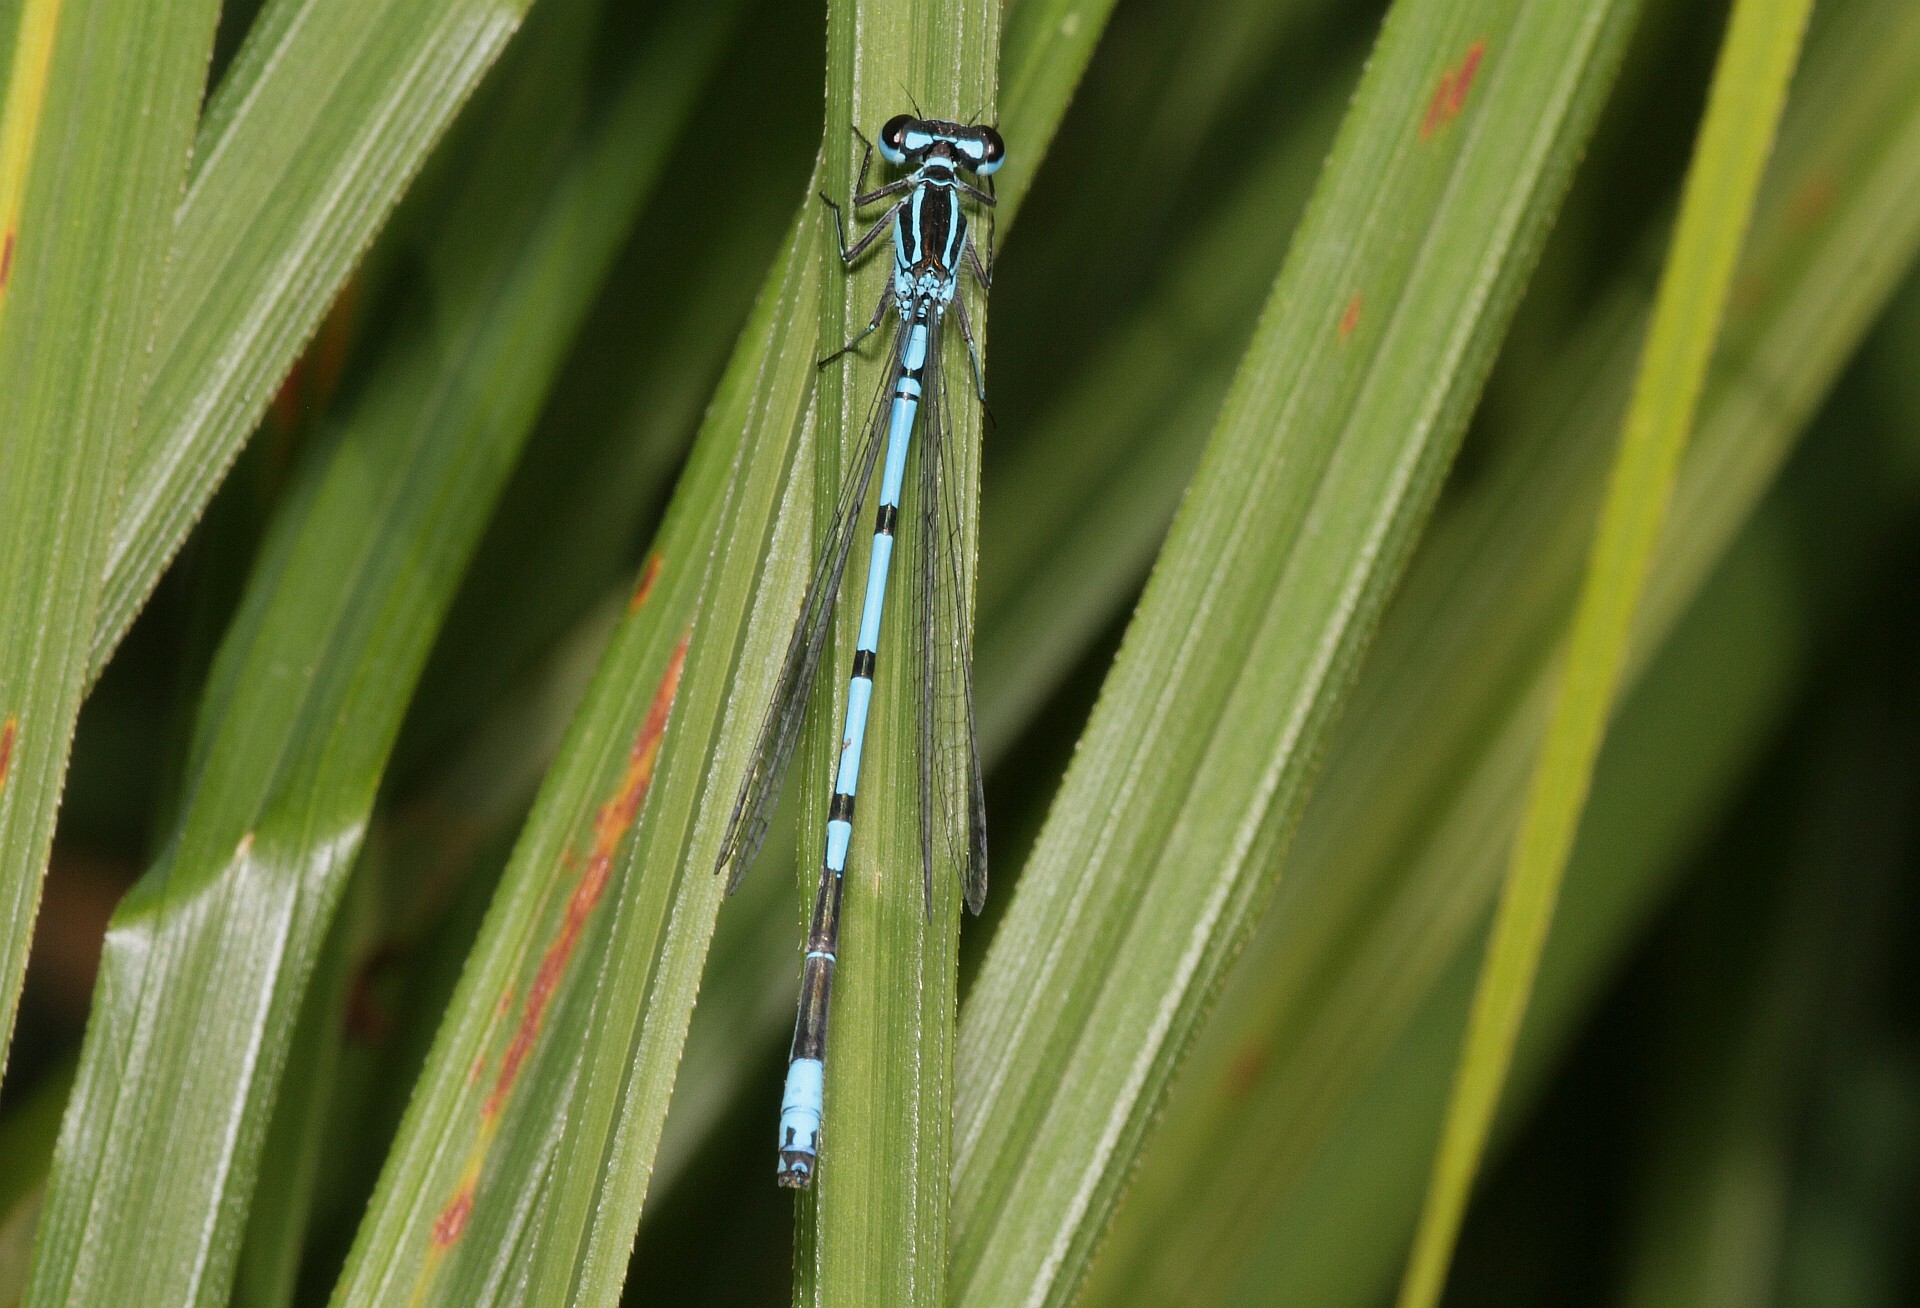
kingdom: Animalia
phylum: Arthropoda
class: Insecta
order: Odonata
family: Coenagrionidae
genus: Coenagrion
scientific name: Coenagrion puella
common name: Azure damselfly
